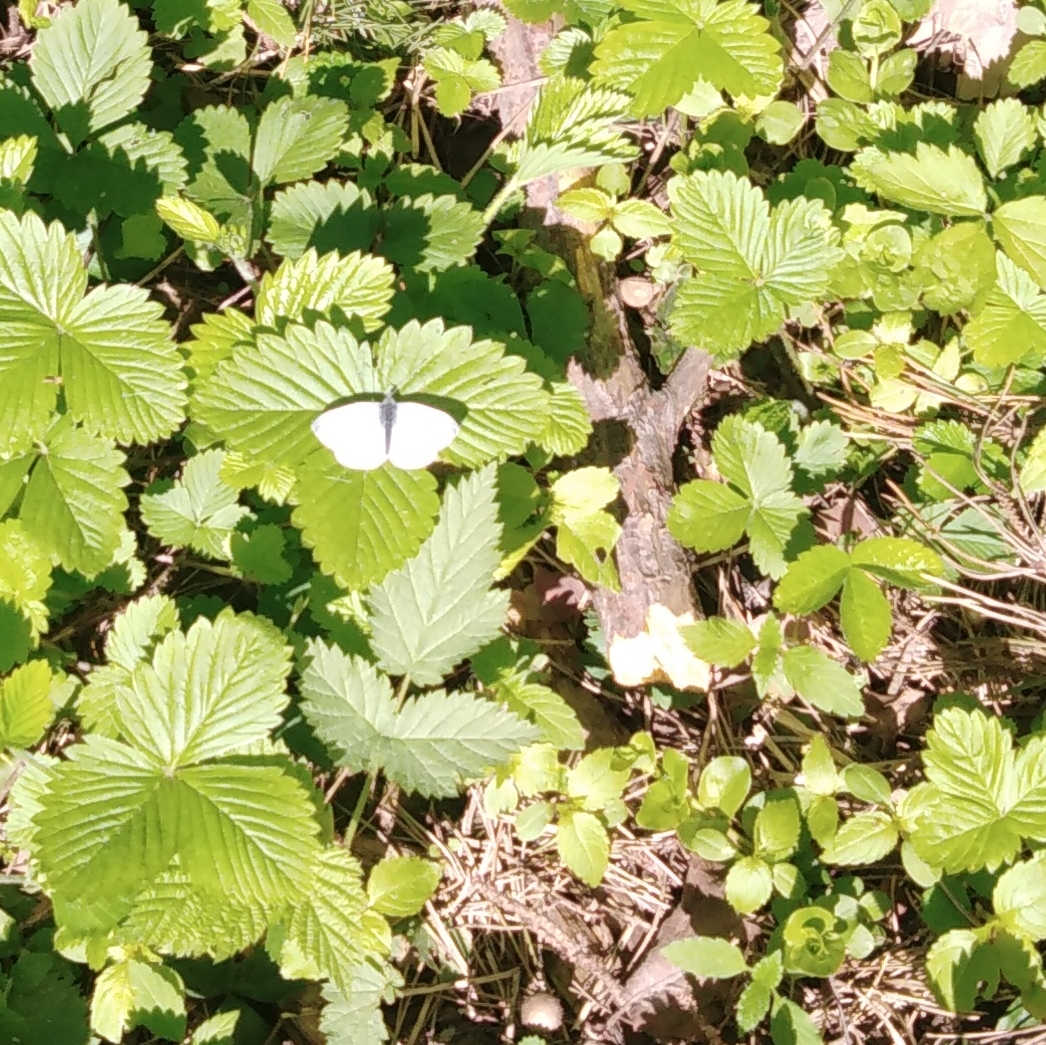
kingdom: Animalia
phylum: Arthropoda
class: Insecta
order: Lepidoptera
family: Pieridae
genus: Pieris
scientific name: Pieris napi
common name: Green-veined white
